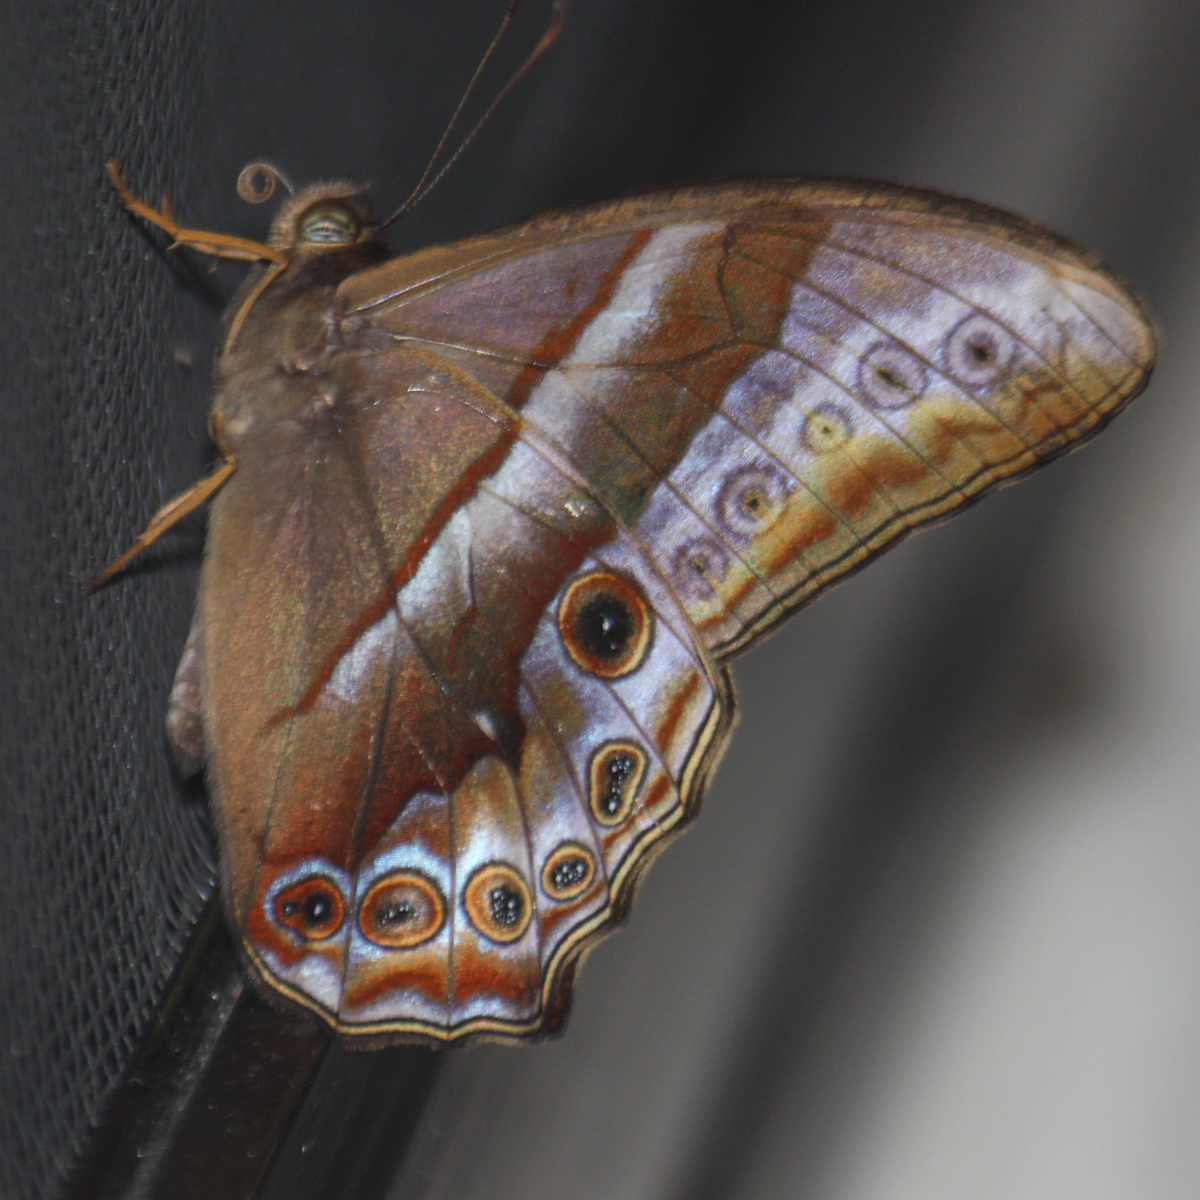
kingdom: Animalia
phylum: Arthropoda
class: Insecta
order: Lepidoptera
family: Nymphalidae
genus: Lethe
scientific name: Lethe mekara
